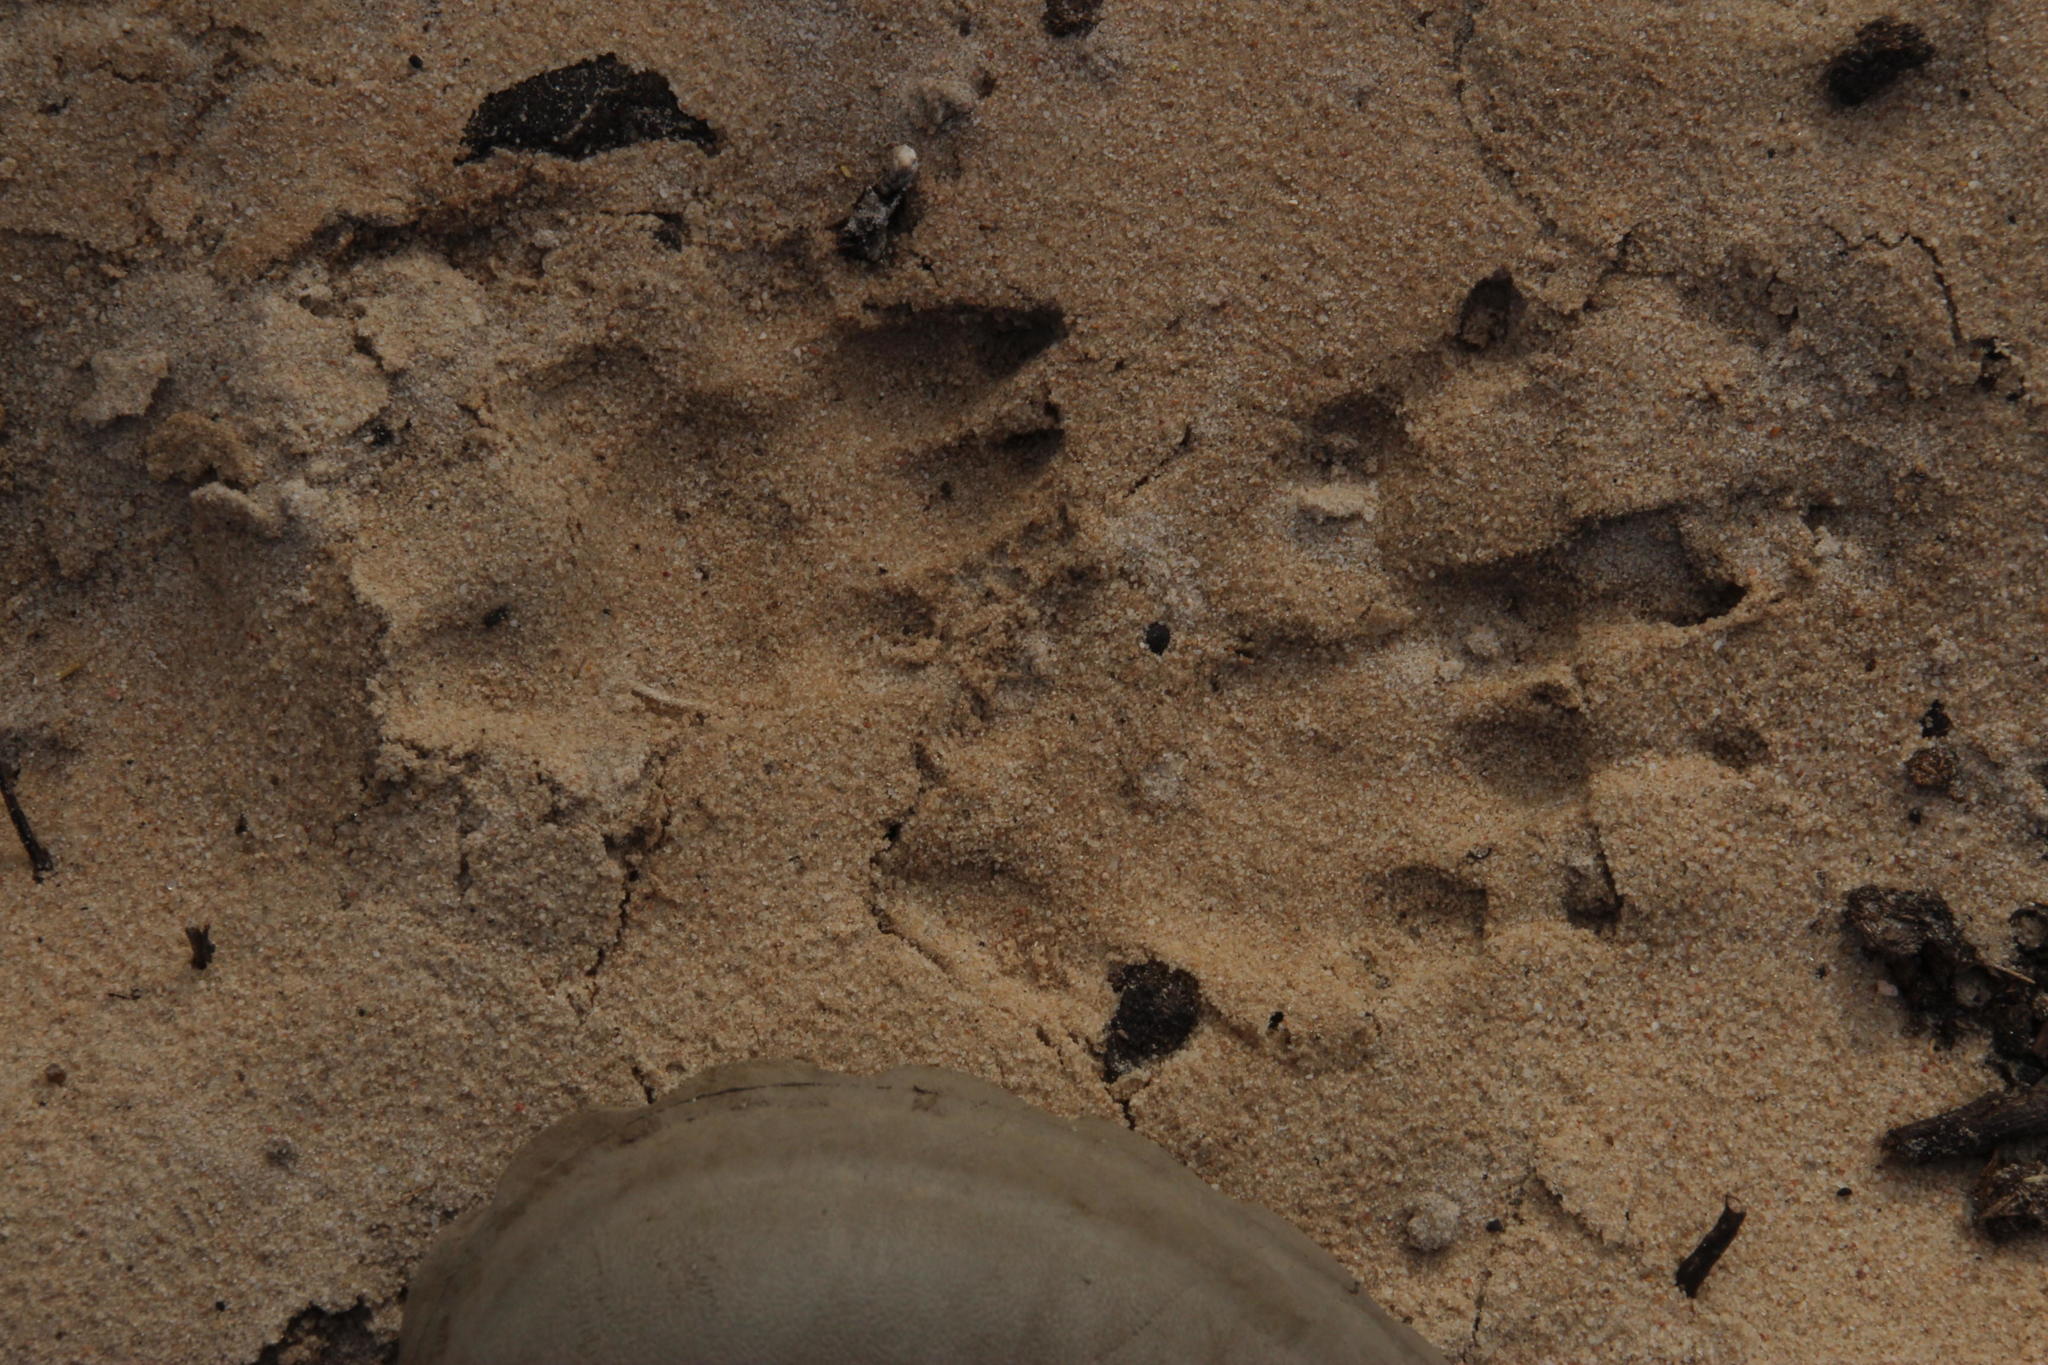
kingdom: Animalia
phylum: Chordata
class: Mammalia
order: Rodentia
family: Hystricidae
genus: Hystrix
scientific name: Hystrix africaeaustralis
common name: Cape porcupine
